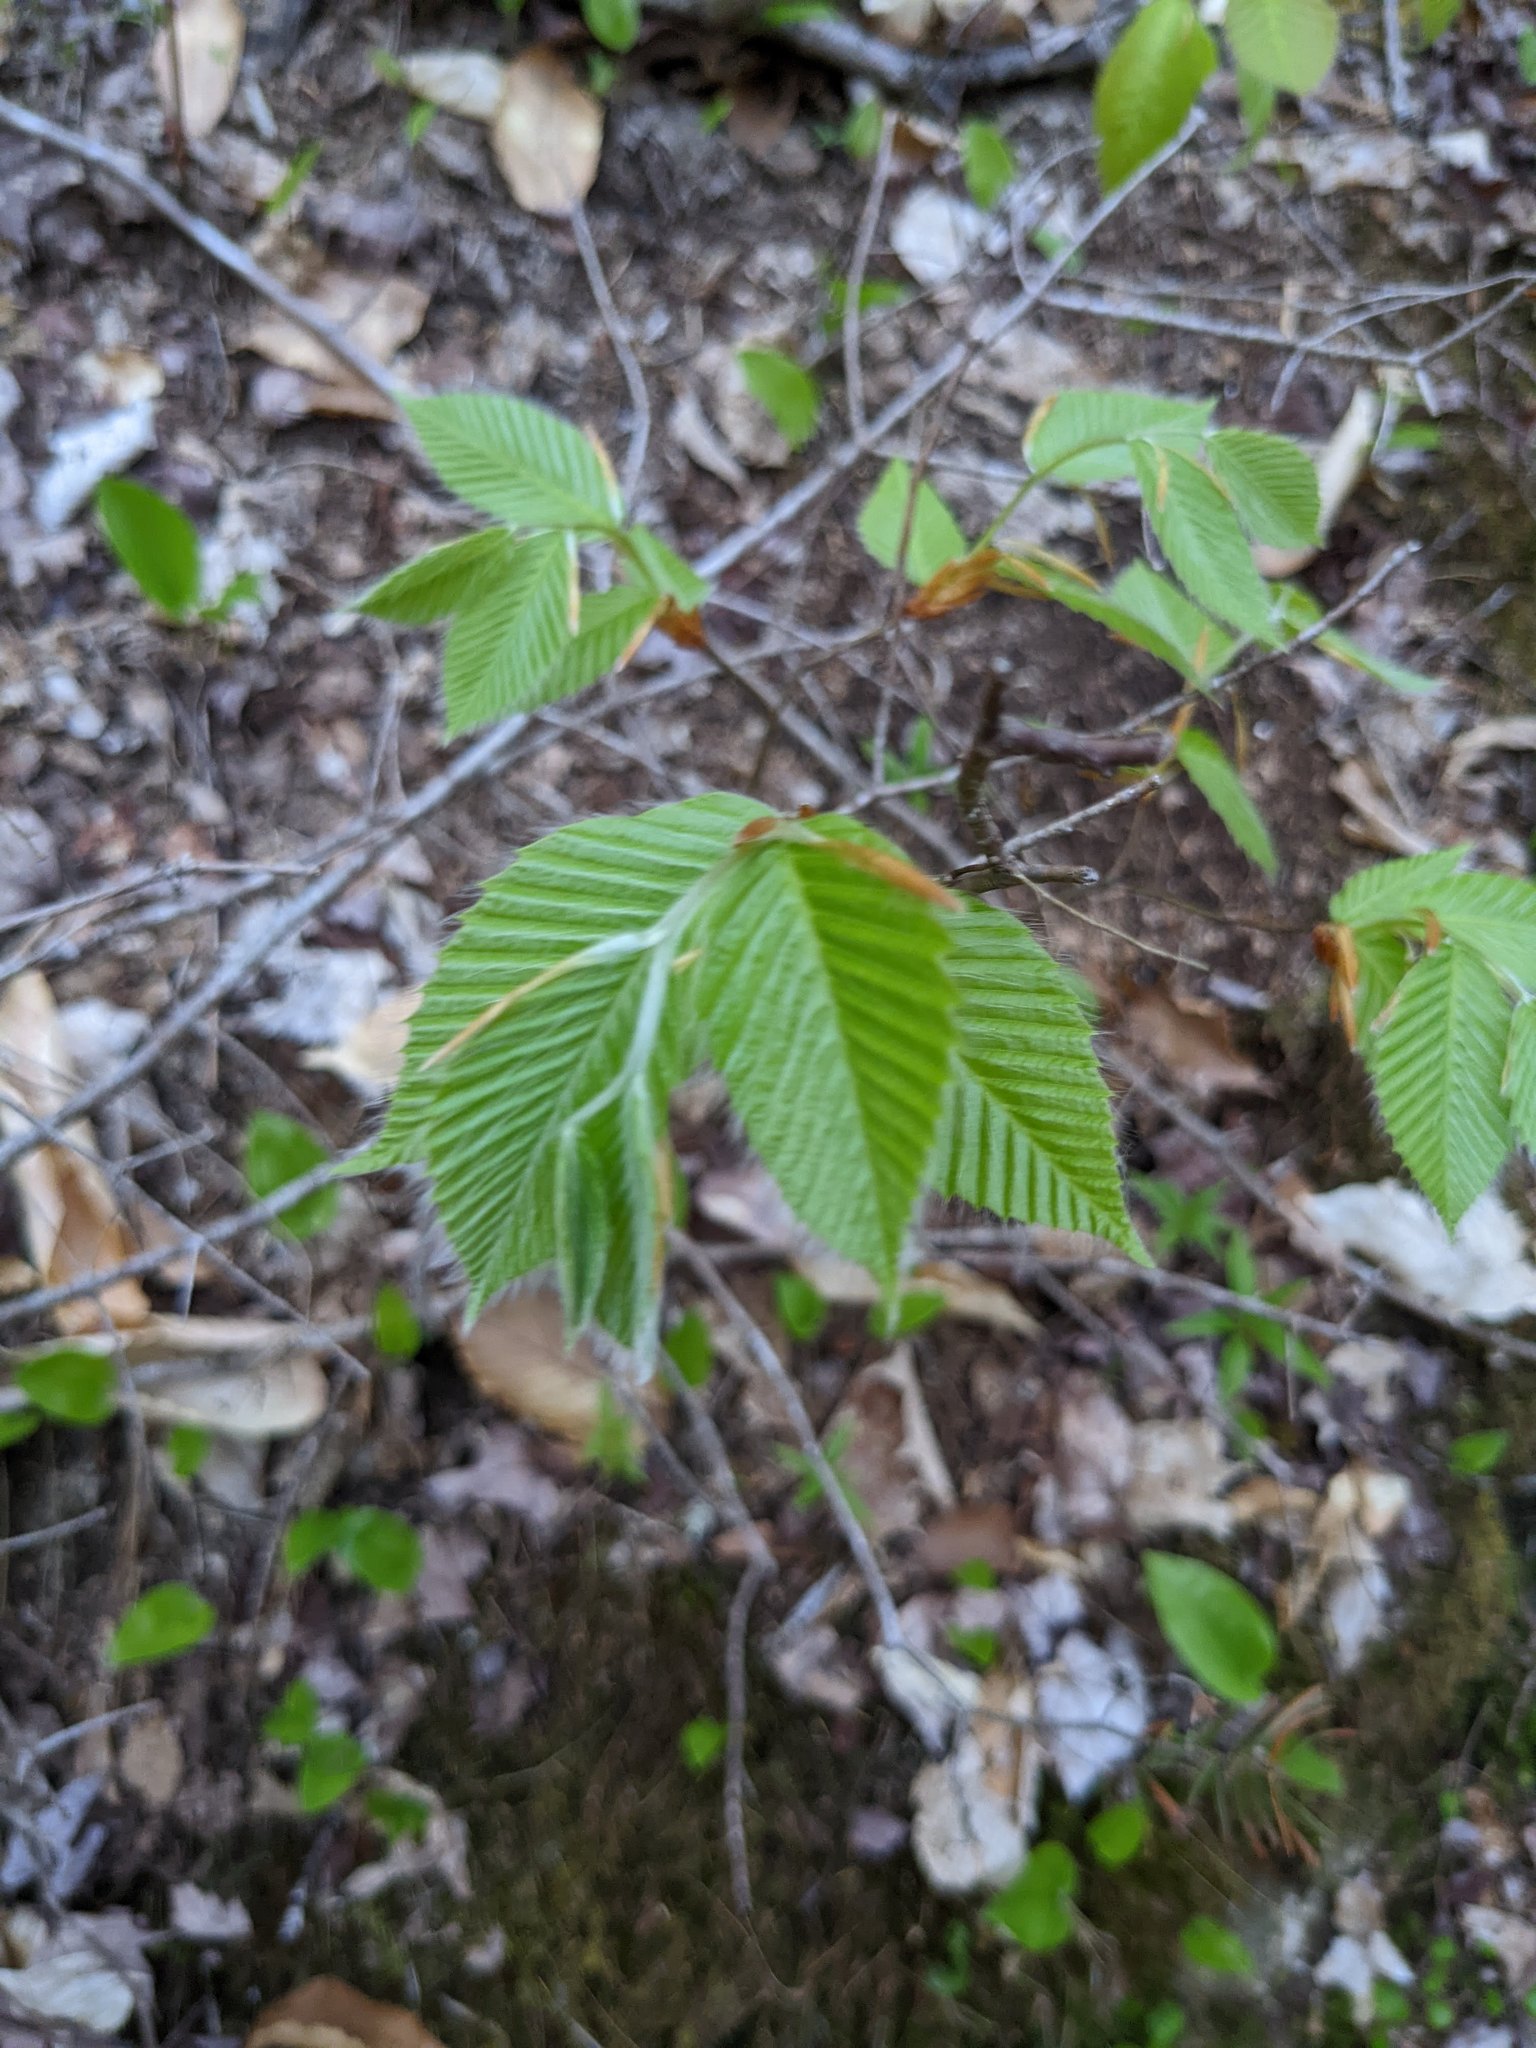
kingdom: Plantae
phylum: Tracheophyta
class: Magnoliopsida
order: Fagales
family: Fagaceae
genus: Fagus
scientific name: Fagus grandifolia
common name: American beech
